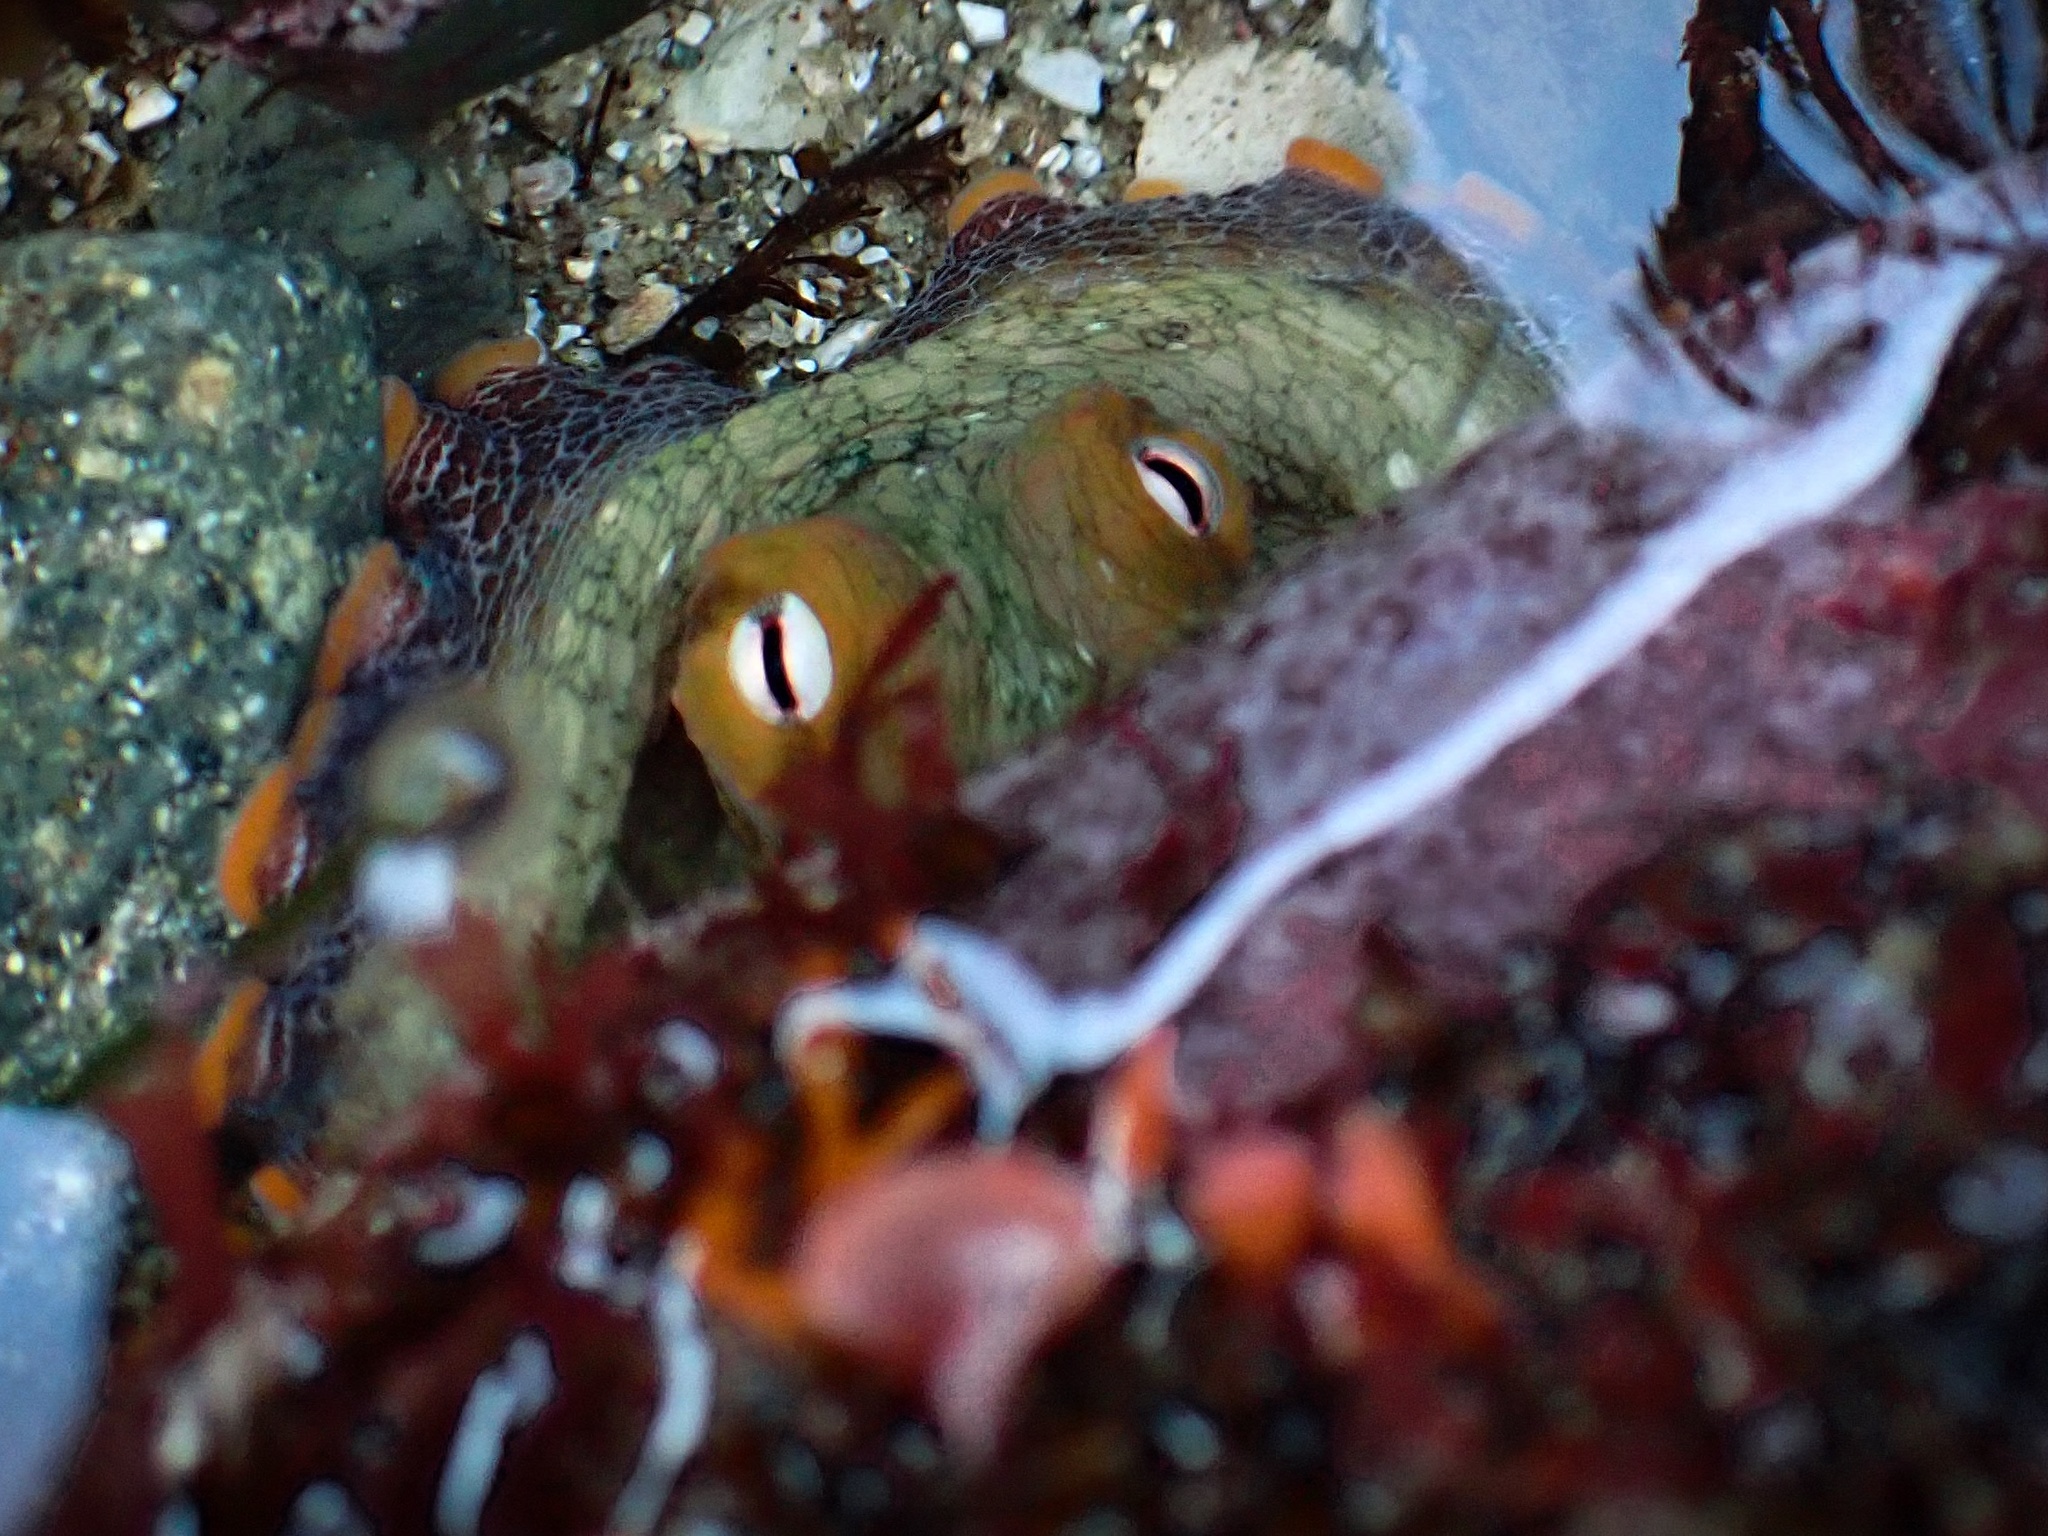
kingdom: Animalia
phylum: Mollusca
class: Cephalopoda
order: Octopoda
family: Octopodidae
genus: Octopus
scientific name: Octopus bimaculoides
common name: California two-spot octopus
